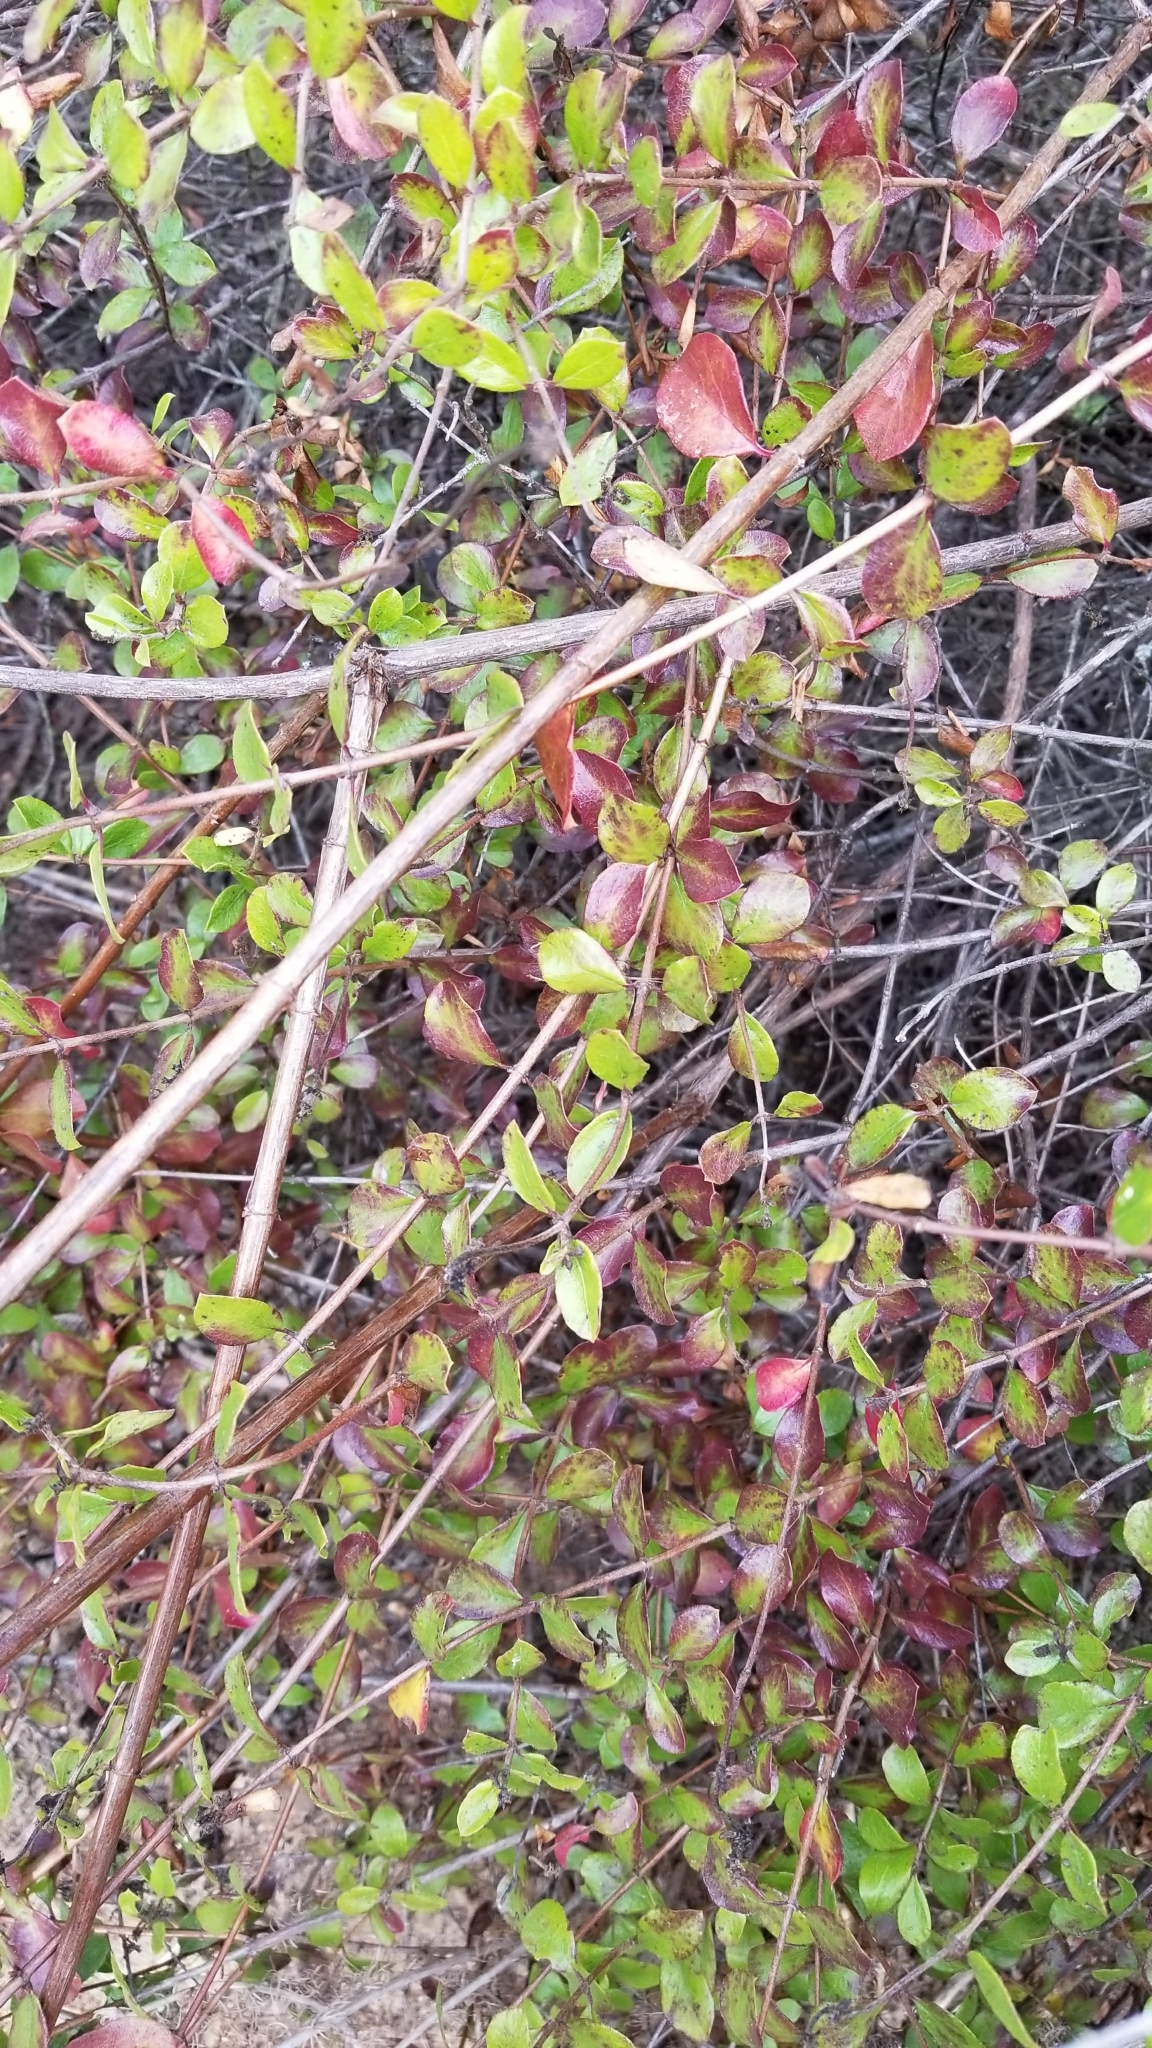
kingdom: Plantae
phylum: Tracheophyta
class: Magnoliopsida
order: Dipsacales
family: Caprifoliaceae
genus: Lonicera
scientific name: Lonicera subspicata
